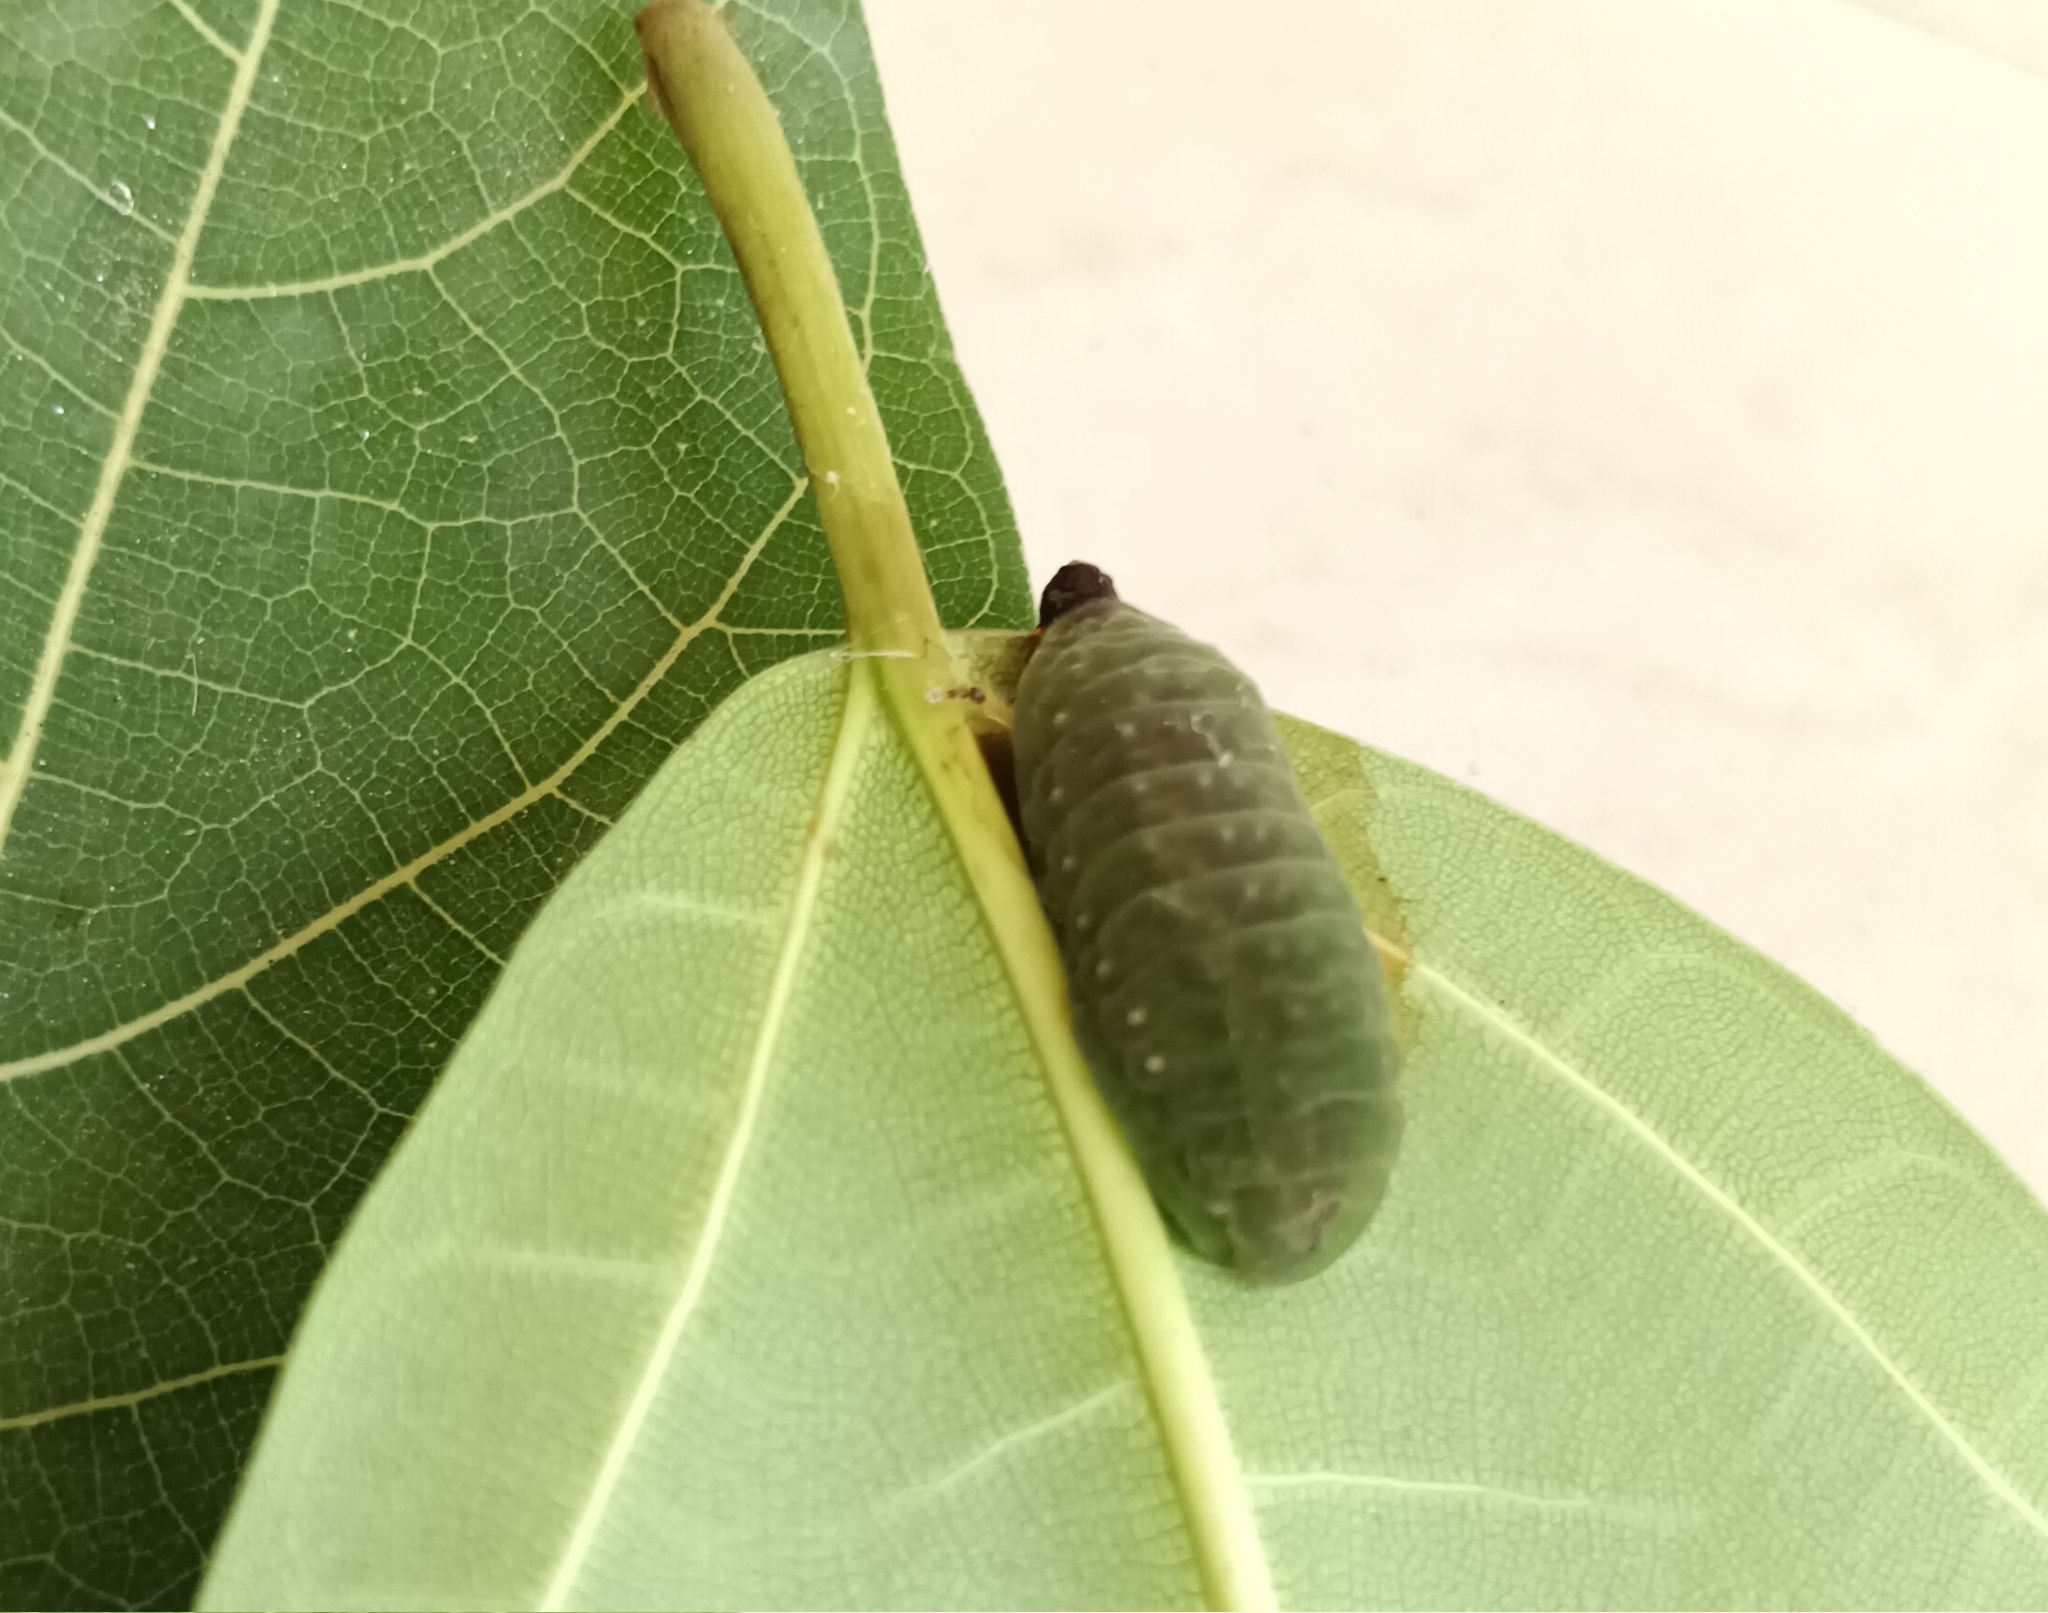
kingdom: Animalia
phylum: Arthropoda
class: Insecta
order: Lepidoptera
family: Lycaenidae
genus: Iraota
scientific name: Iraota timoleon
